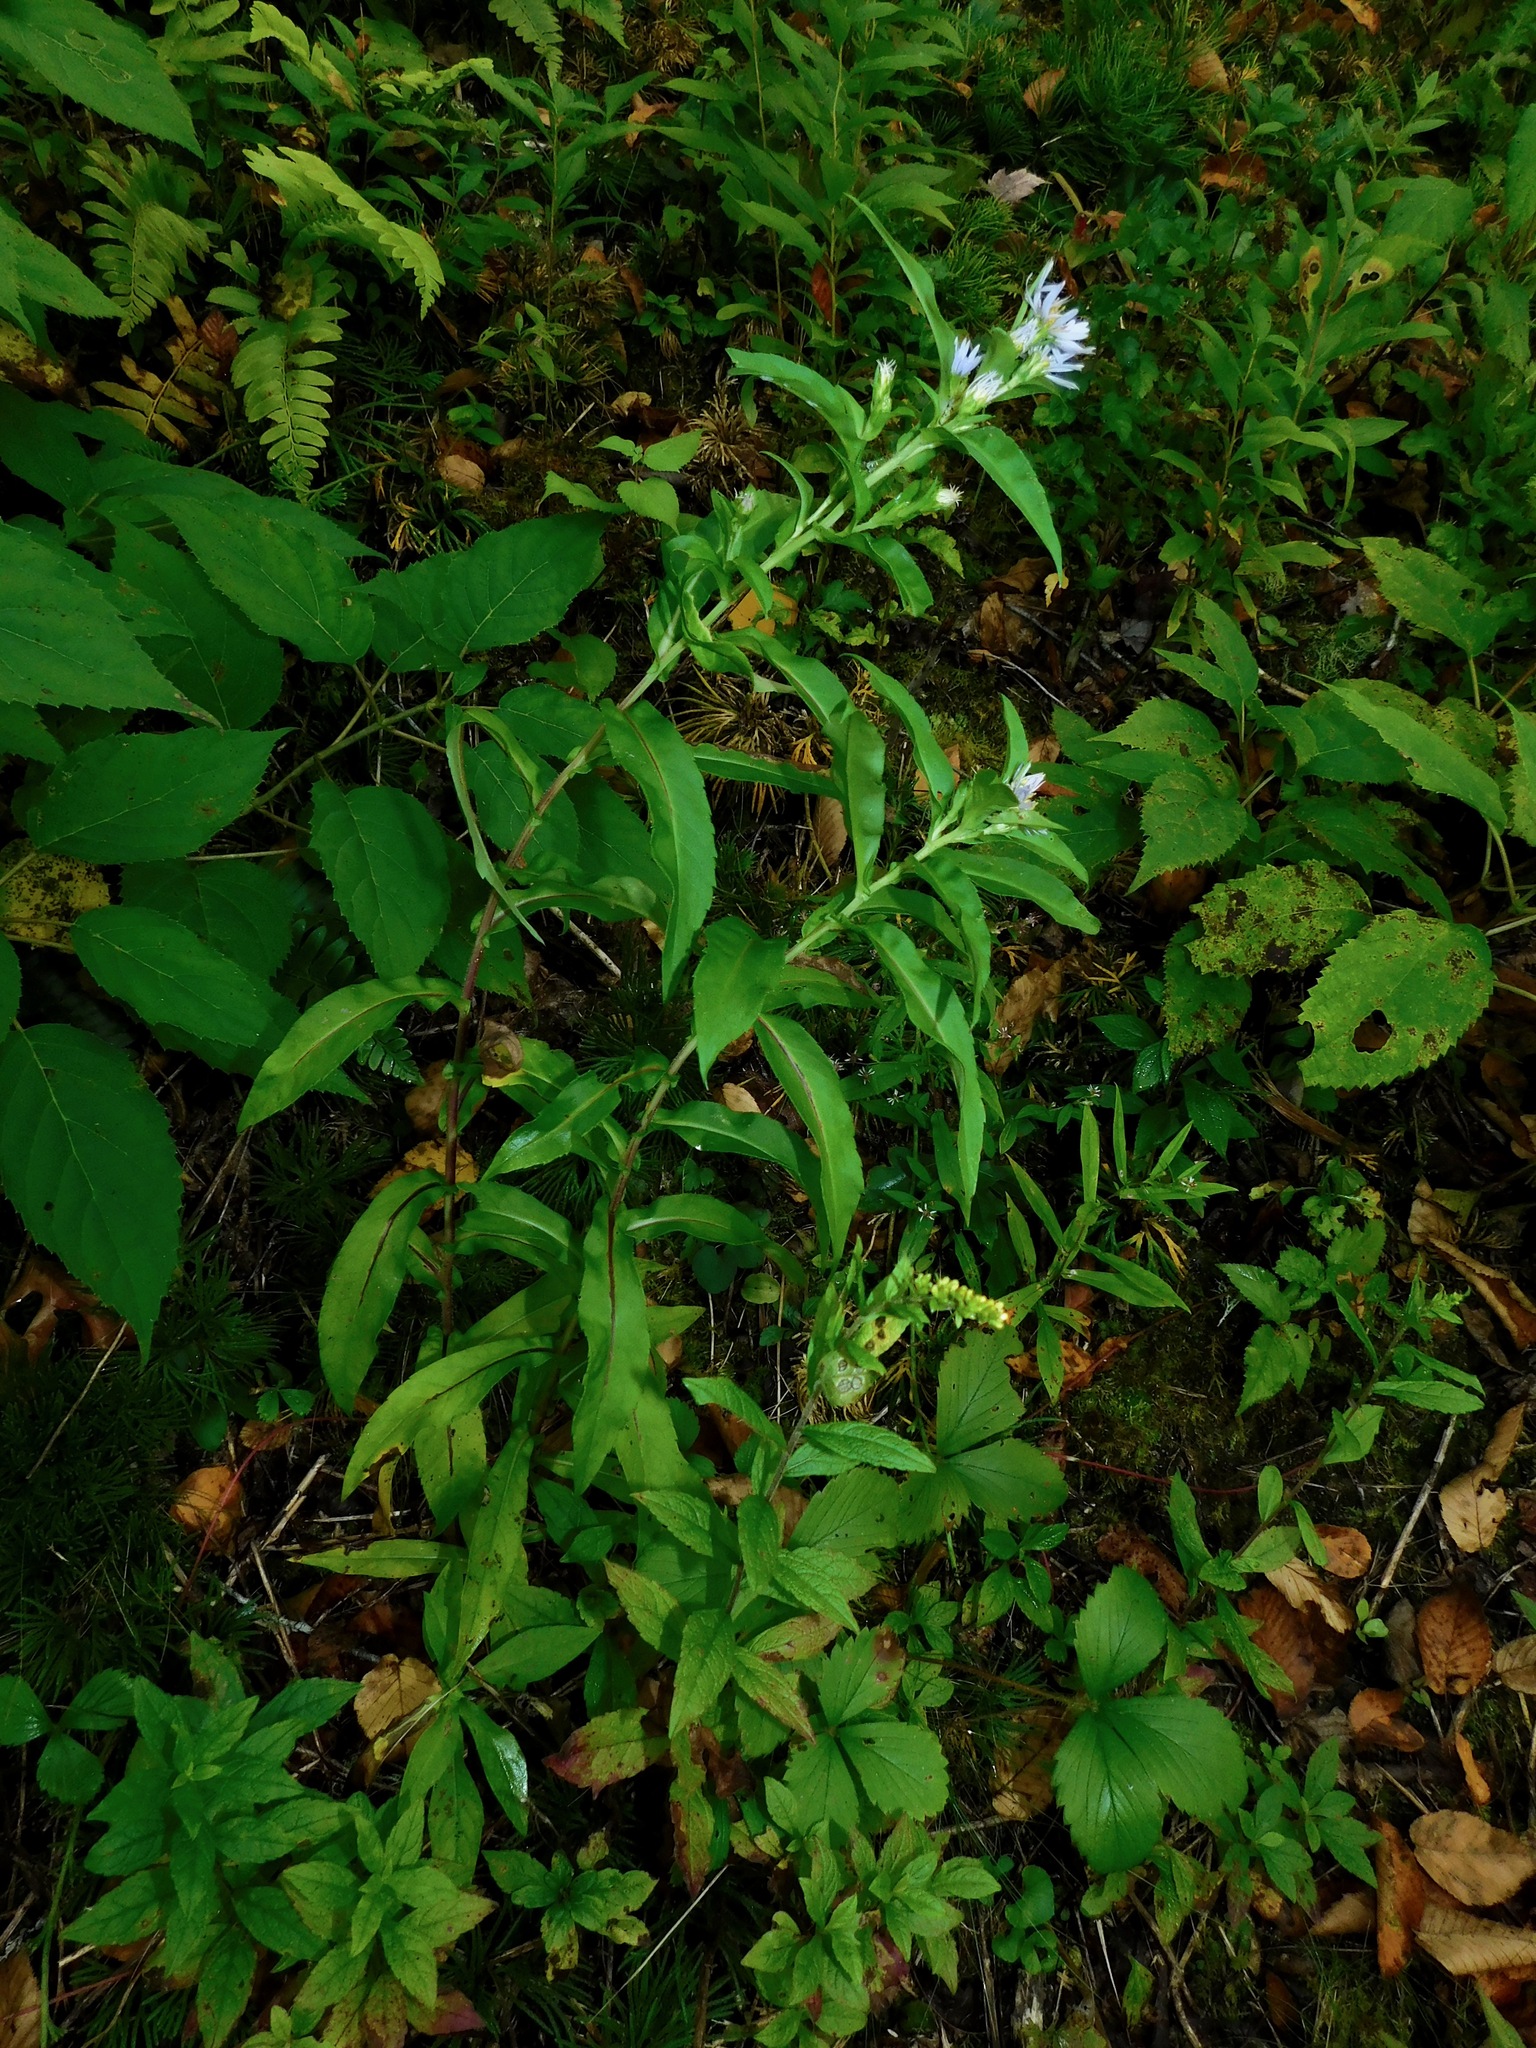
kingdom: Plantae
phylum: Tracheophyta
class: Magnoliopsida
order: Asterales
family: Asteraceae
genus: Symphyotrichum
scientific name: Symphyotrichum puniceum
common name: Bog aster
